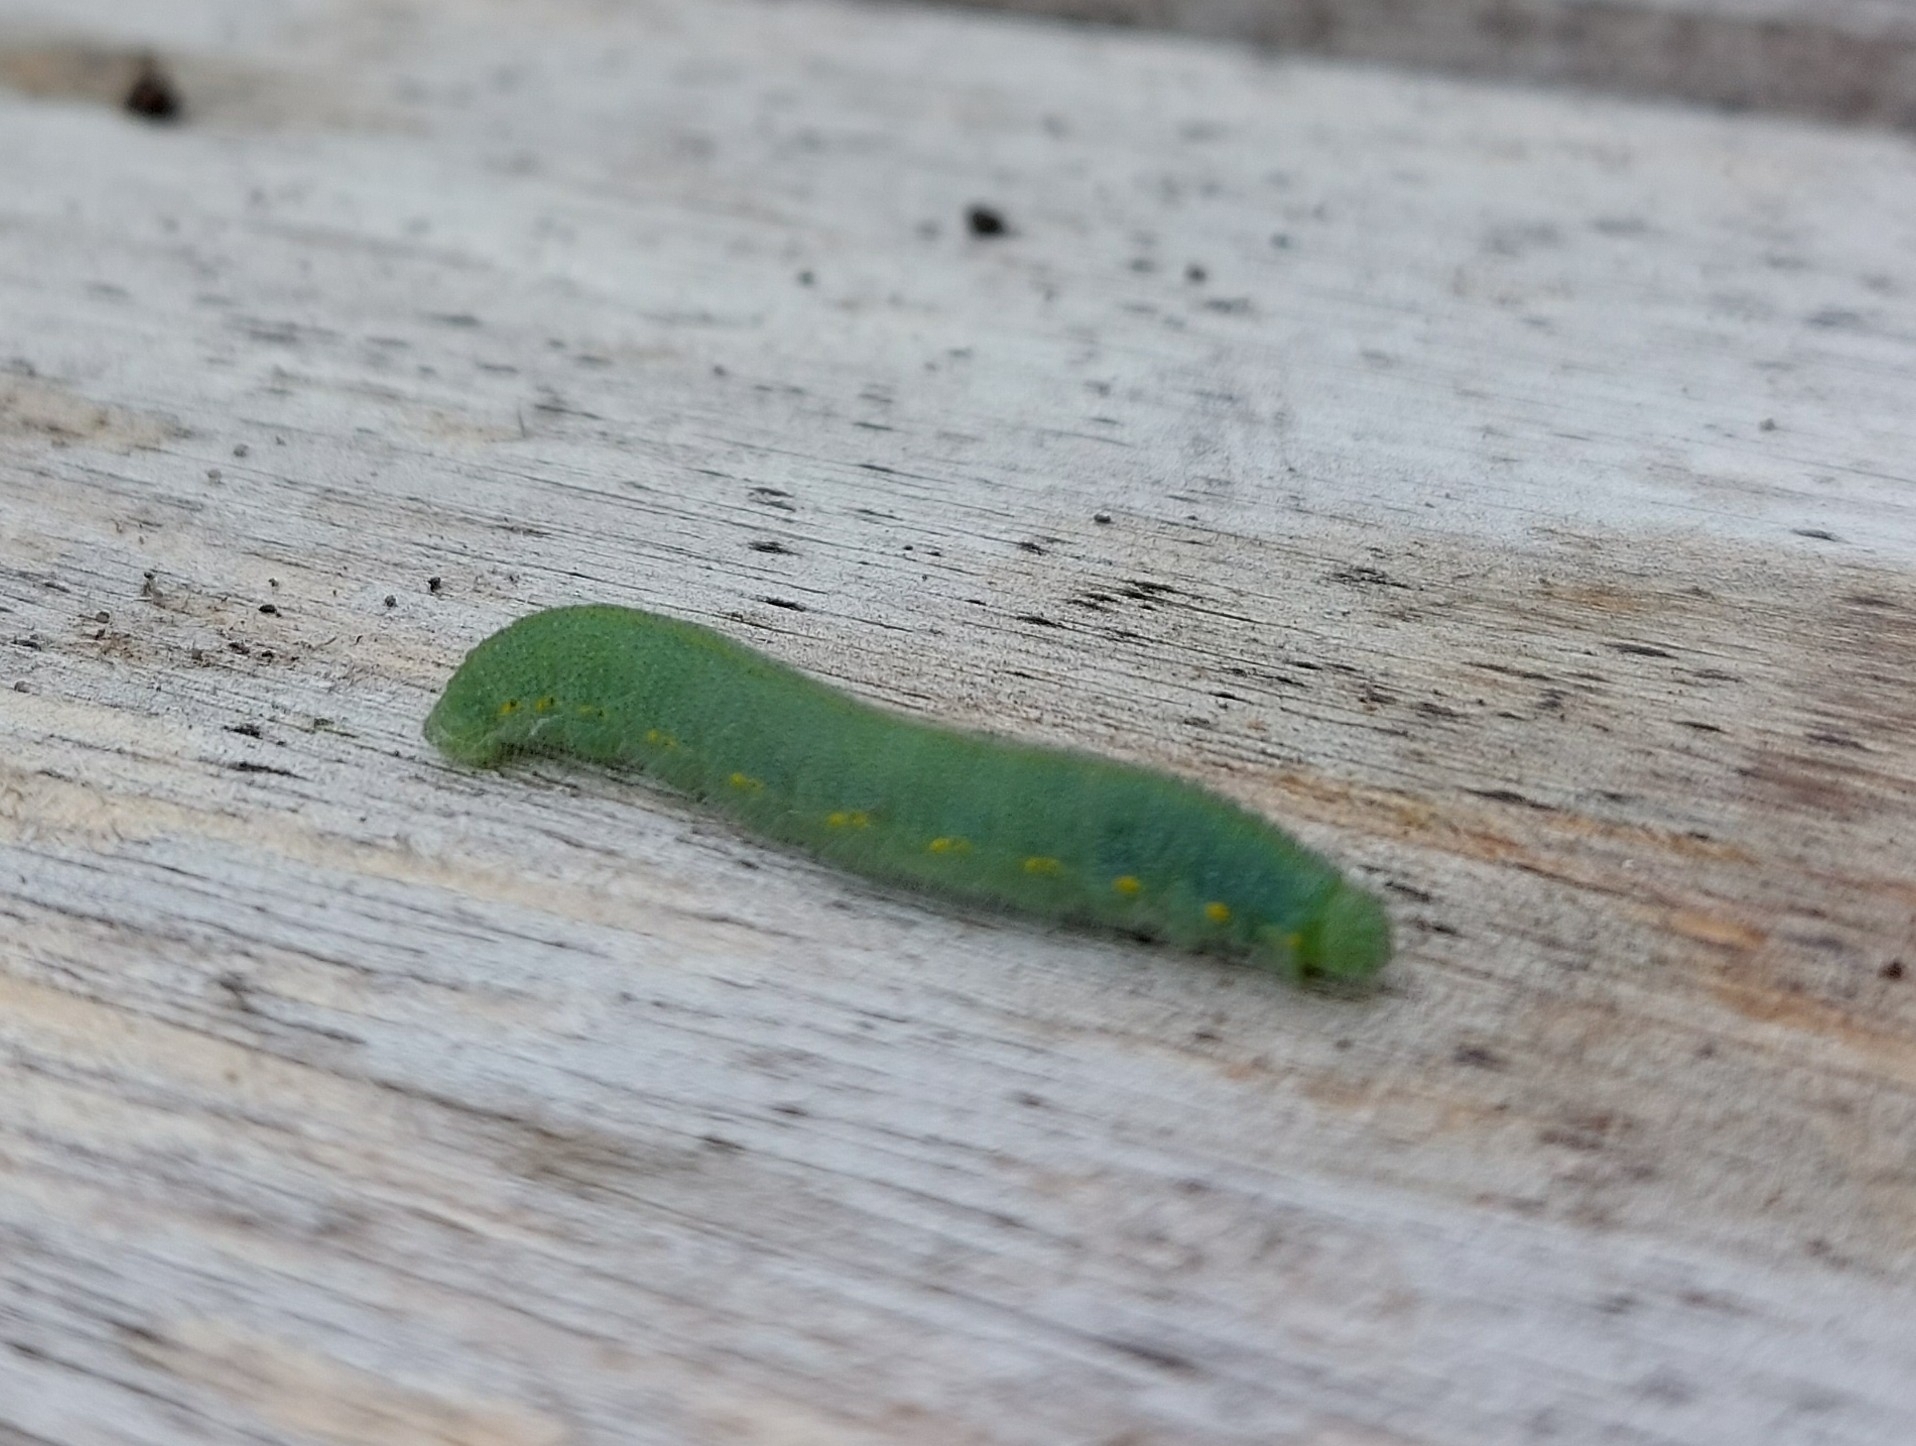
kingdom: Animalia
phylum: Arthropoda
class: Insecta
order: Lepidoptera
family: Pieridae
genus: Pieris
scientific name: Pieris rapae
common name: Small white
